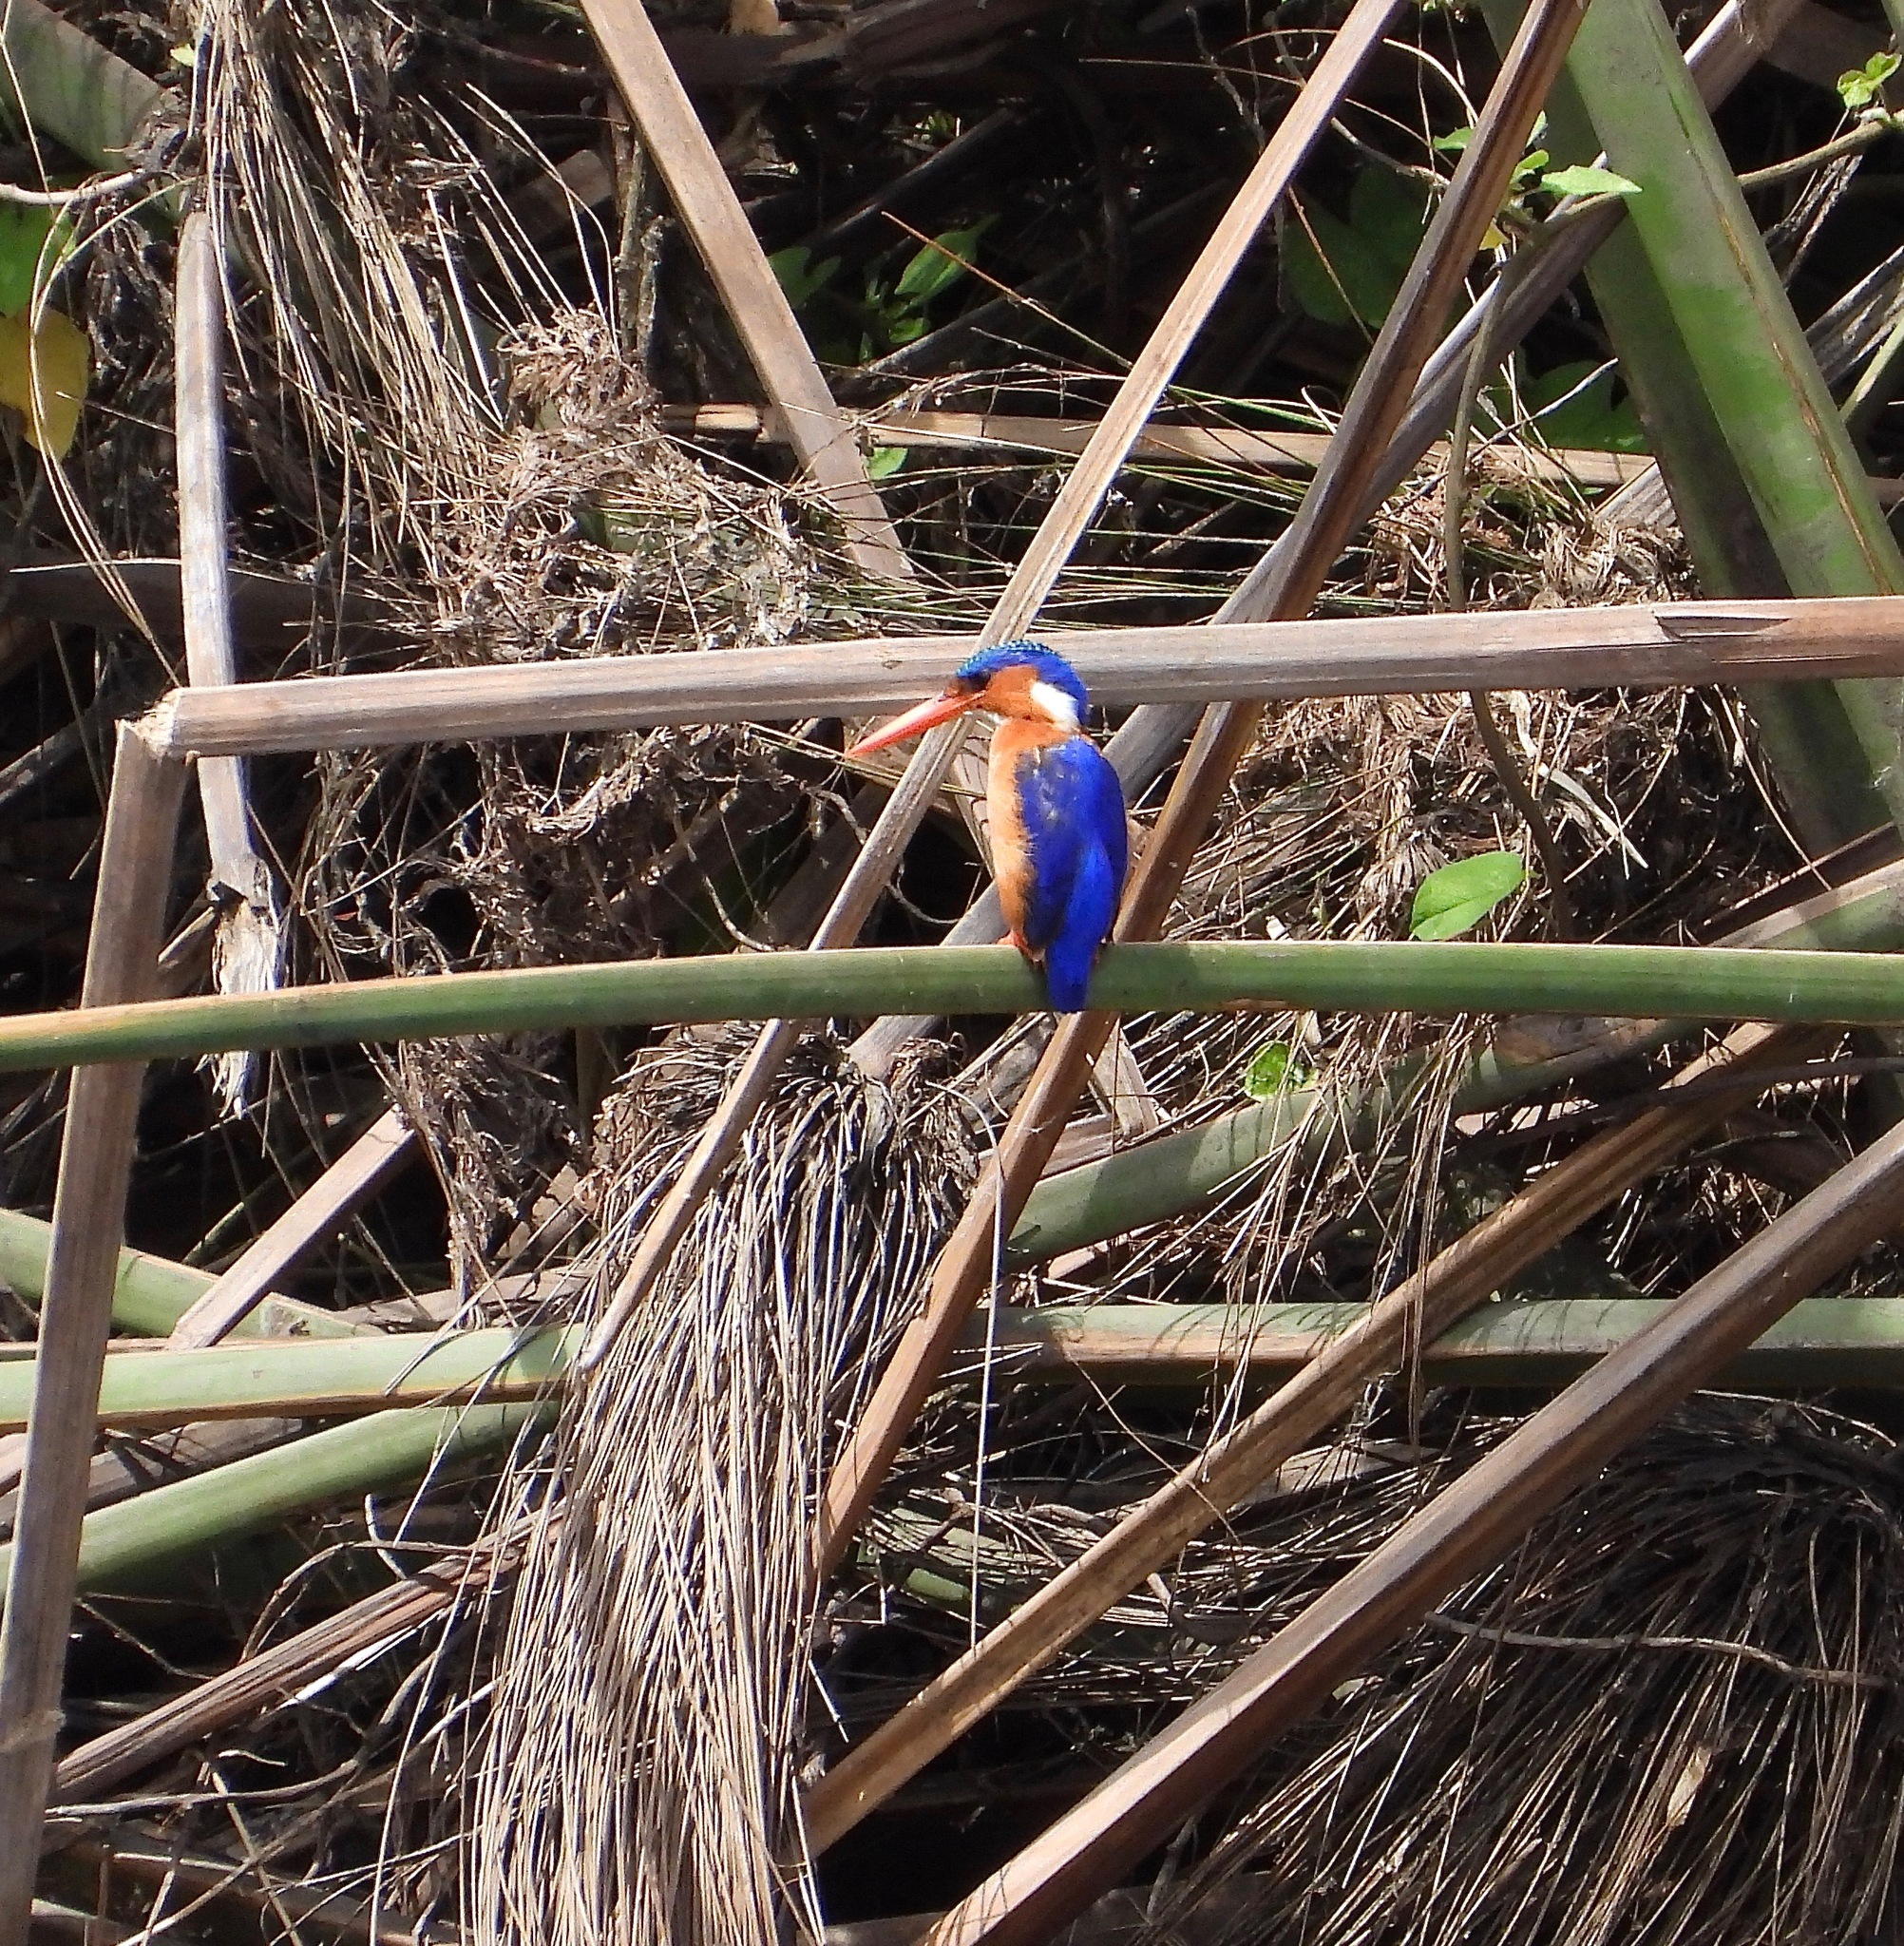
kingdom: Animalia
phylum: Chordata
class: Aves
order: Coraciiformes
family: Alcedinidae
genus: Corythornis
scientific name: Corythornis cristatus
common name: Malachite kingfisher
